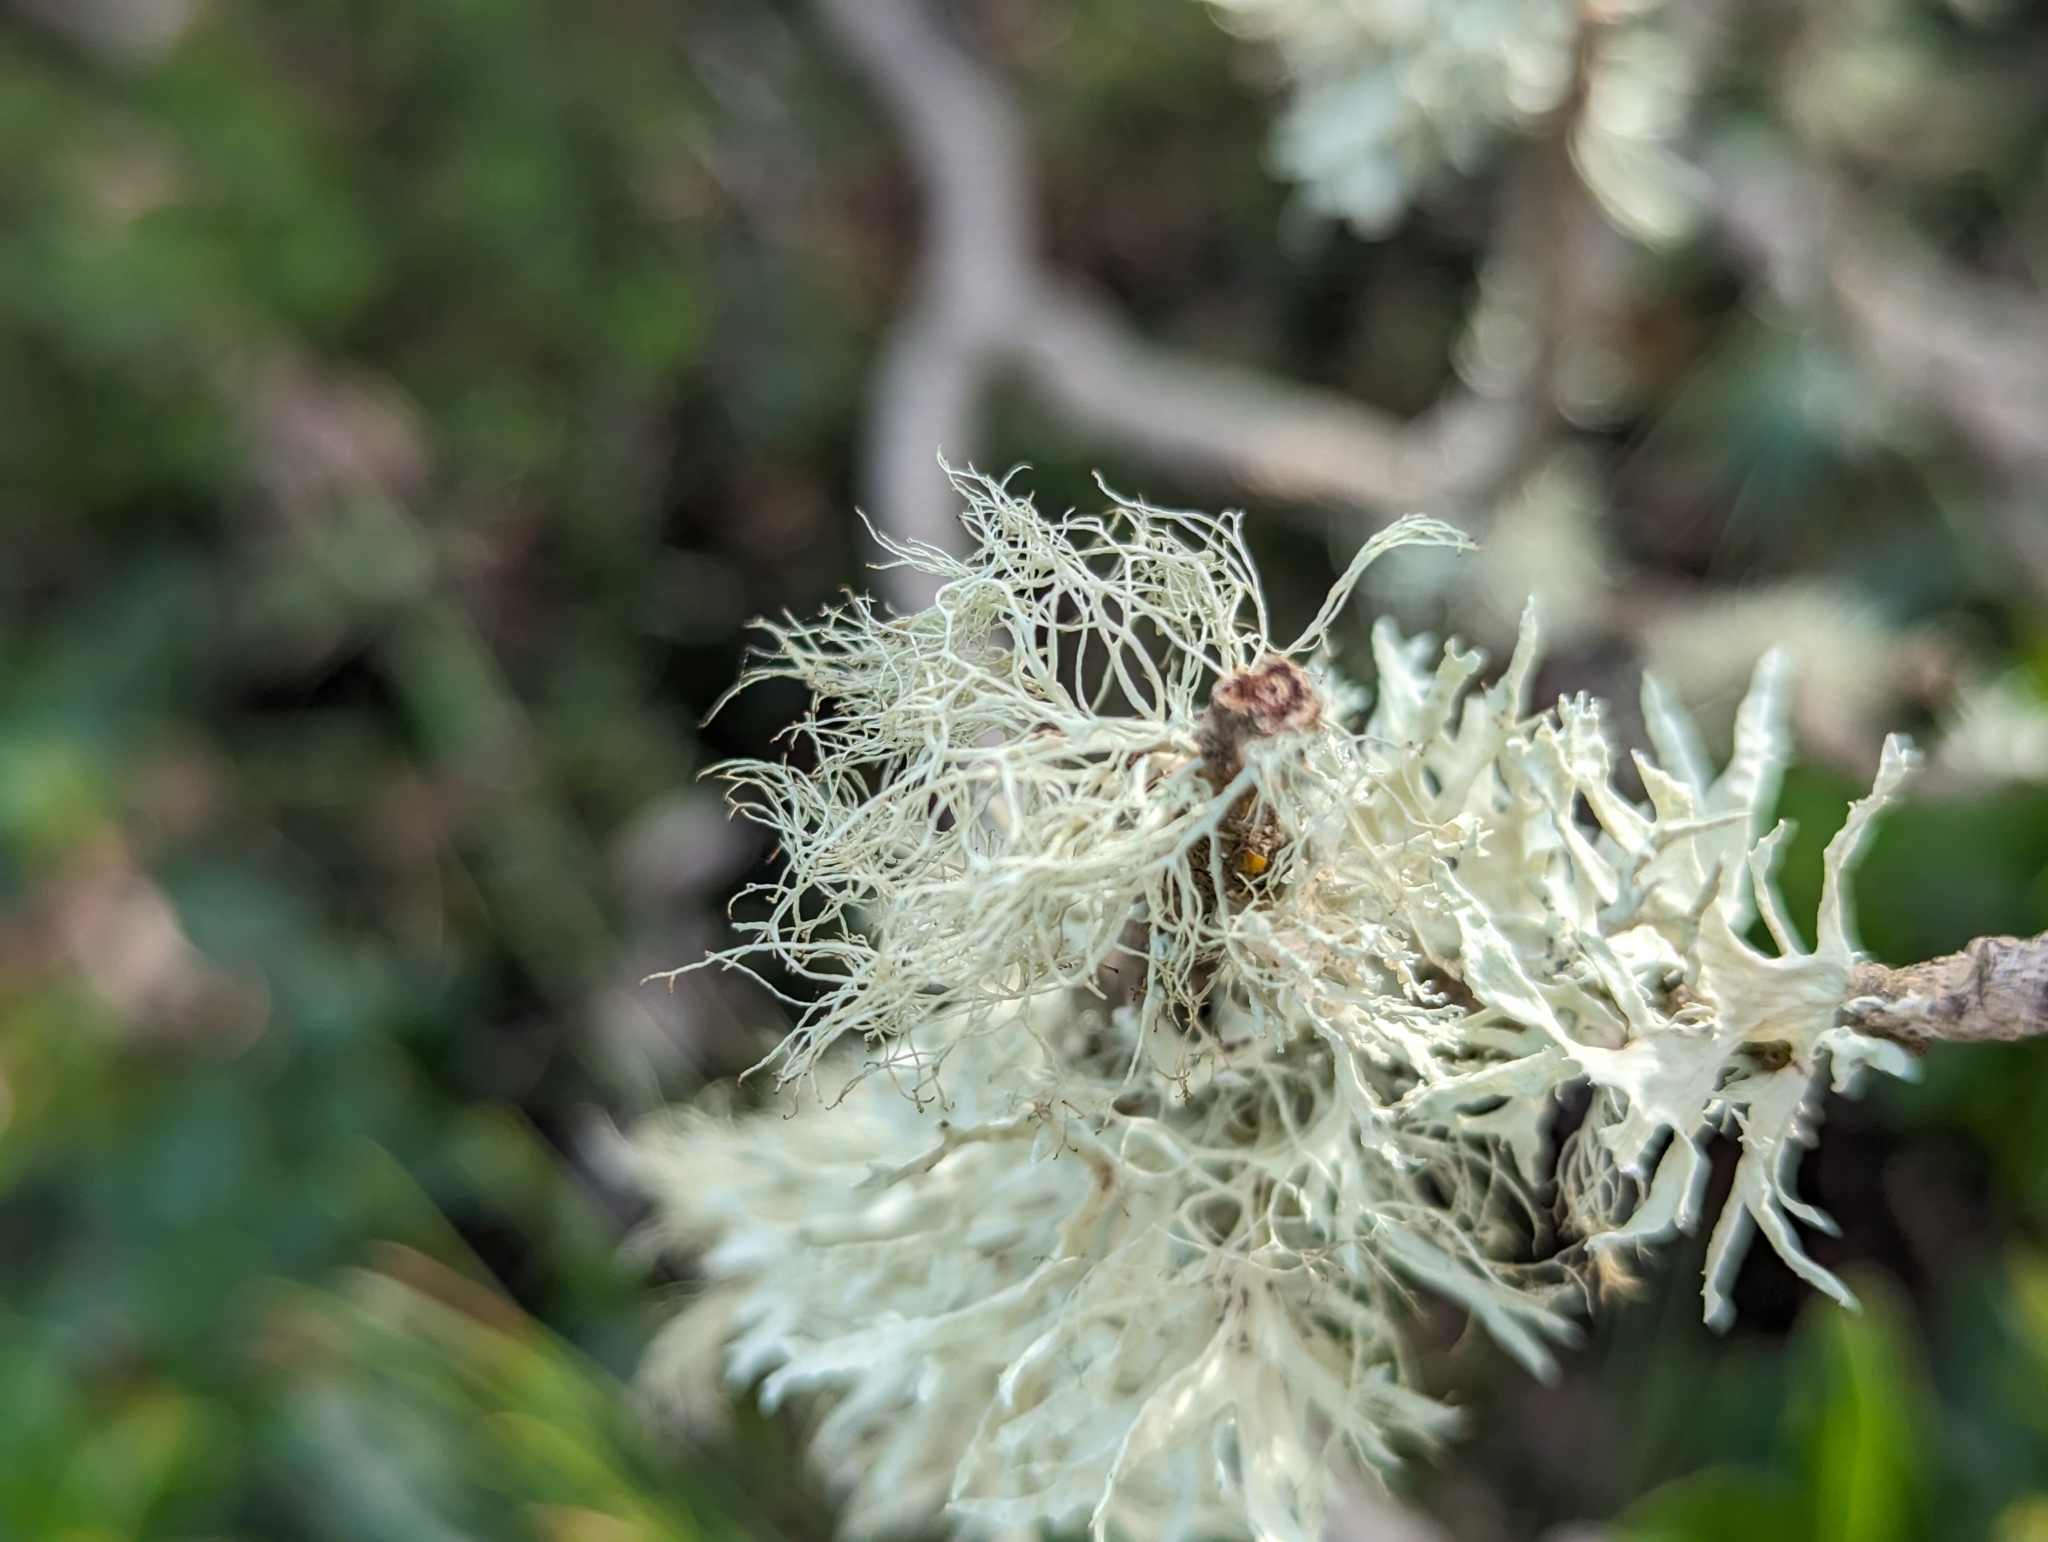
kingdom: Fungi
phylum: Ascomycota
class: Lecanoromycetes
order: Lecanorales
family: Ramalinaceae
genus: Ramalina
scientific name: Ramalina canariensis
